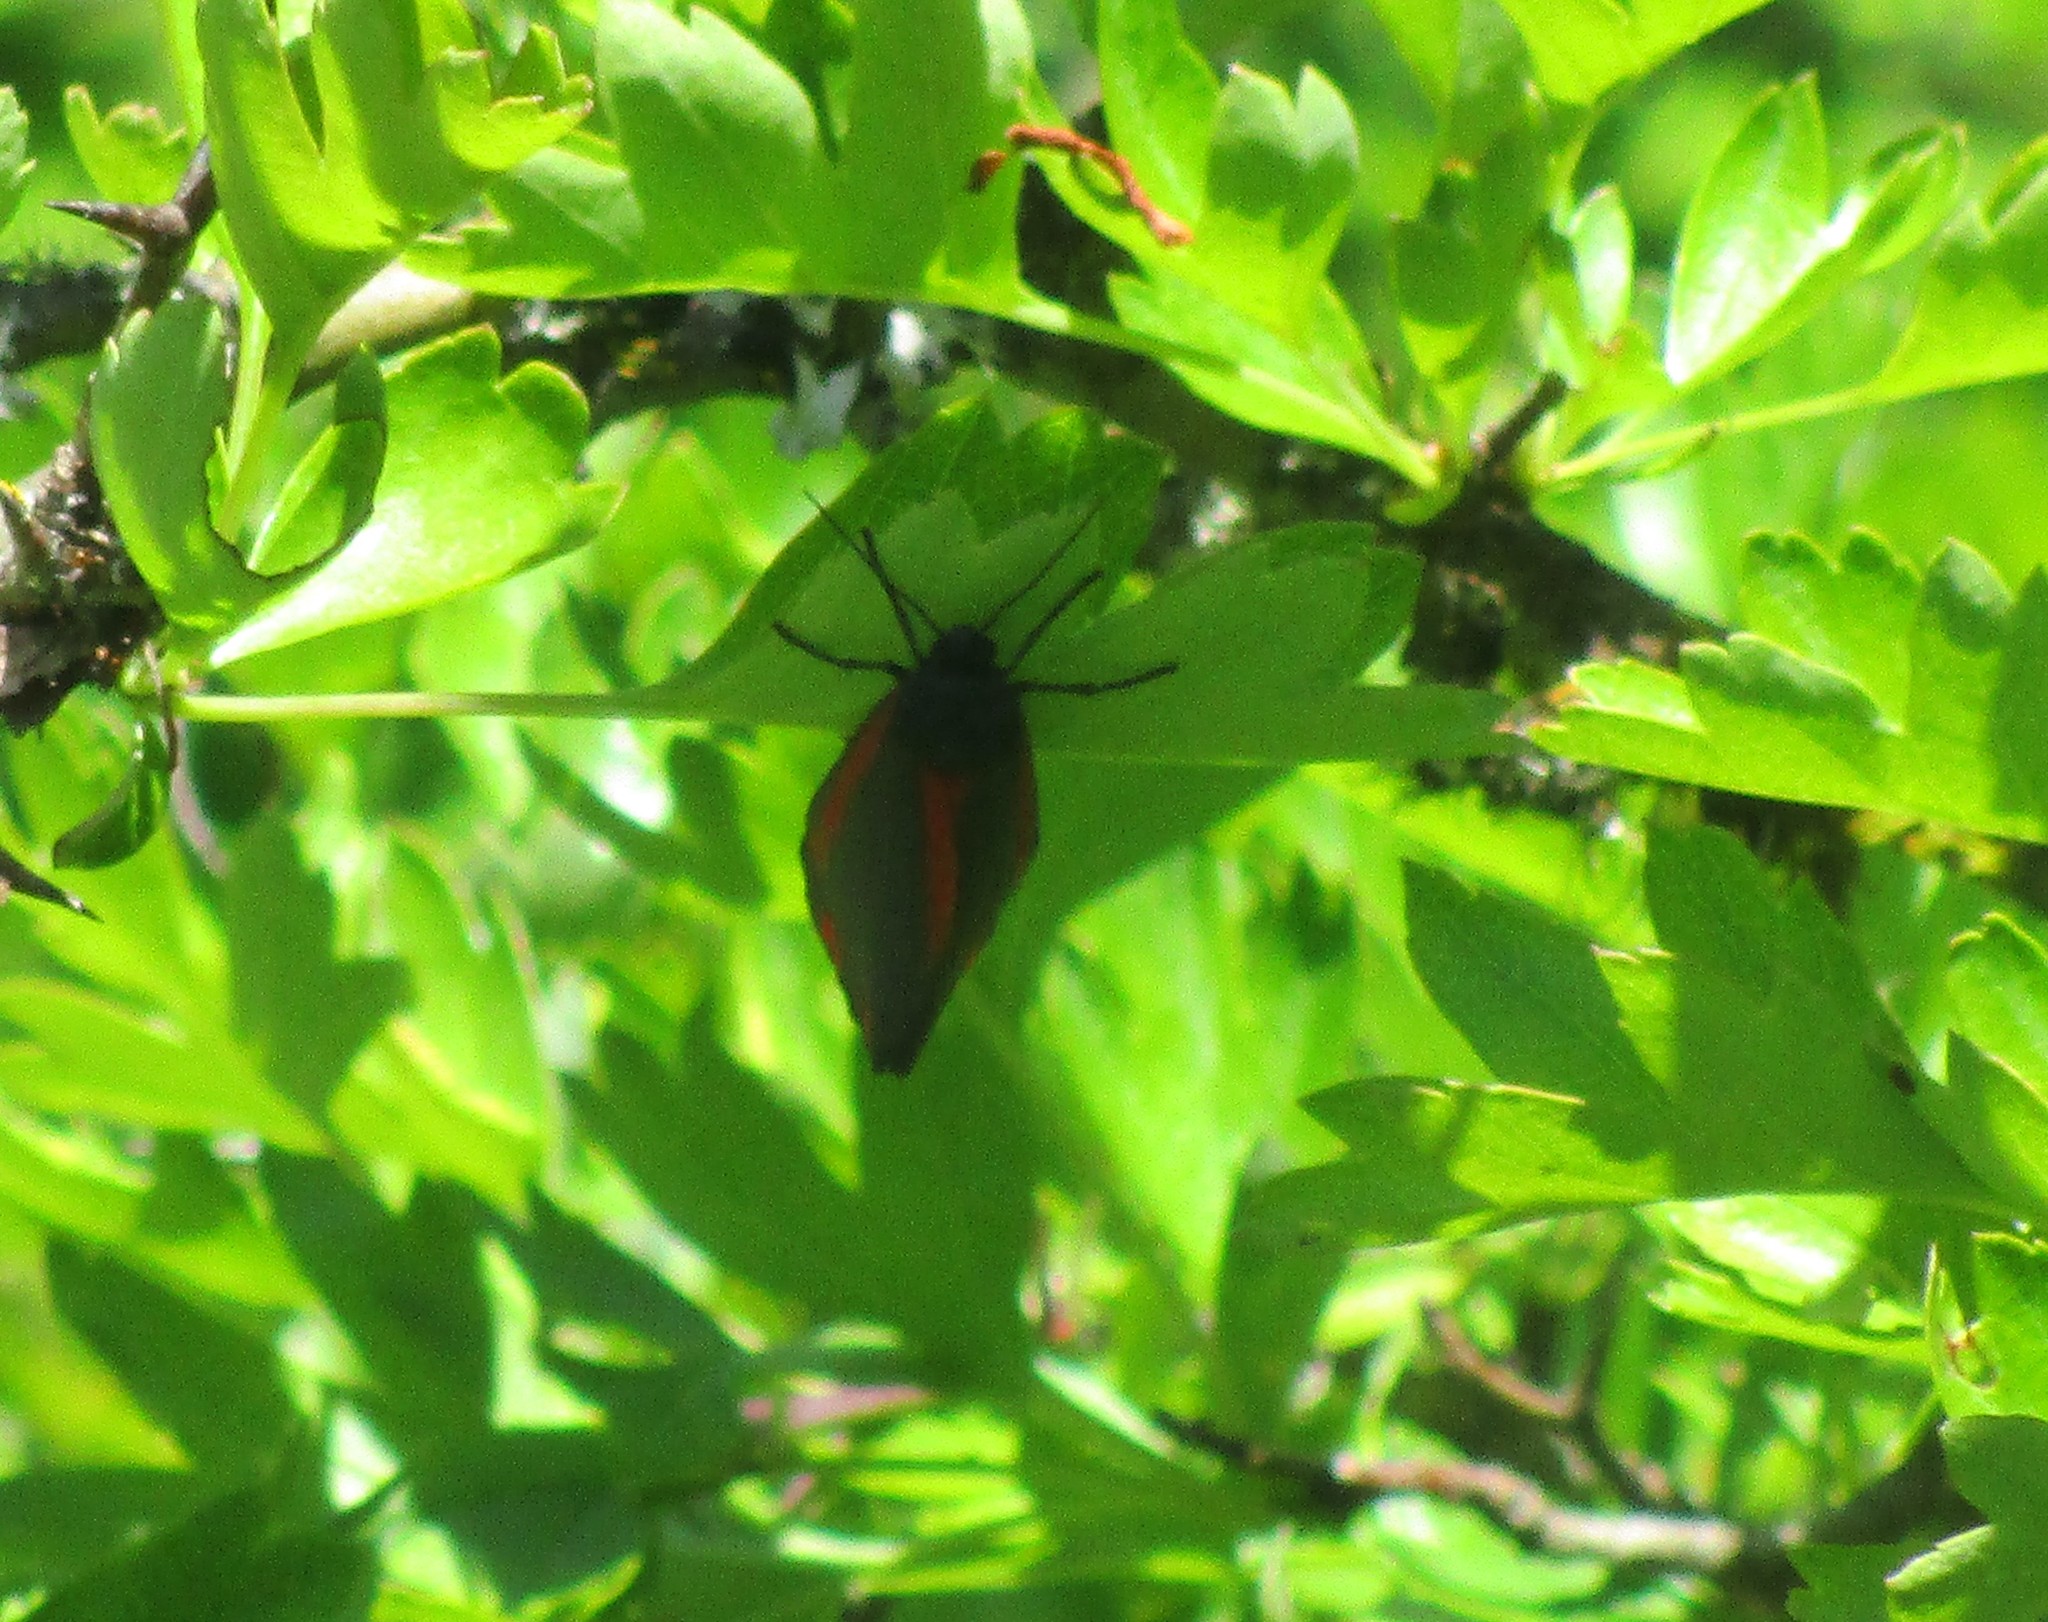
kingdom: Animalia
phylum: Arthropoda
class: Insecta
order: Lepidoptera
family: Erebidae
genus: Tyria
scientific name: Tyria jacobaeae
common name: Cinnabar
